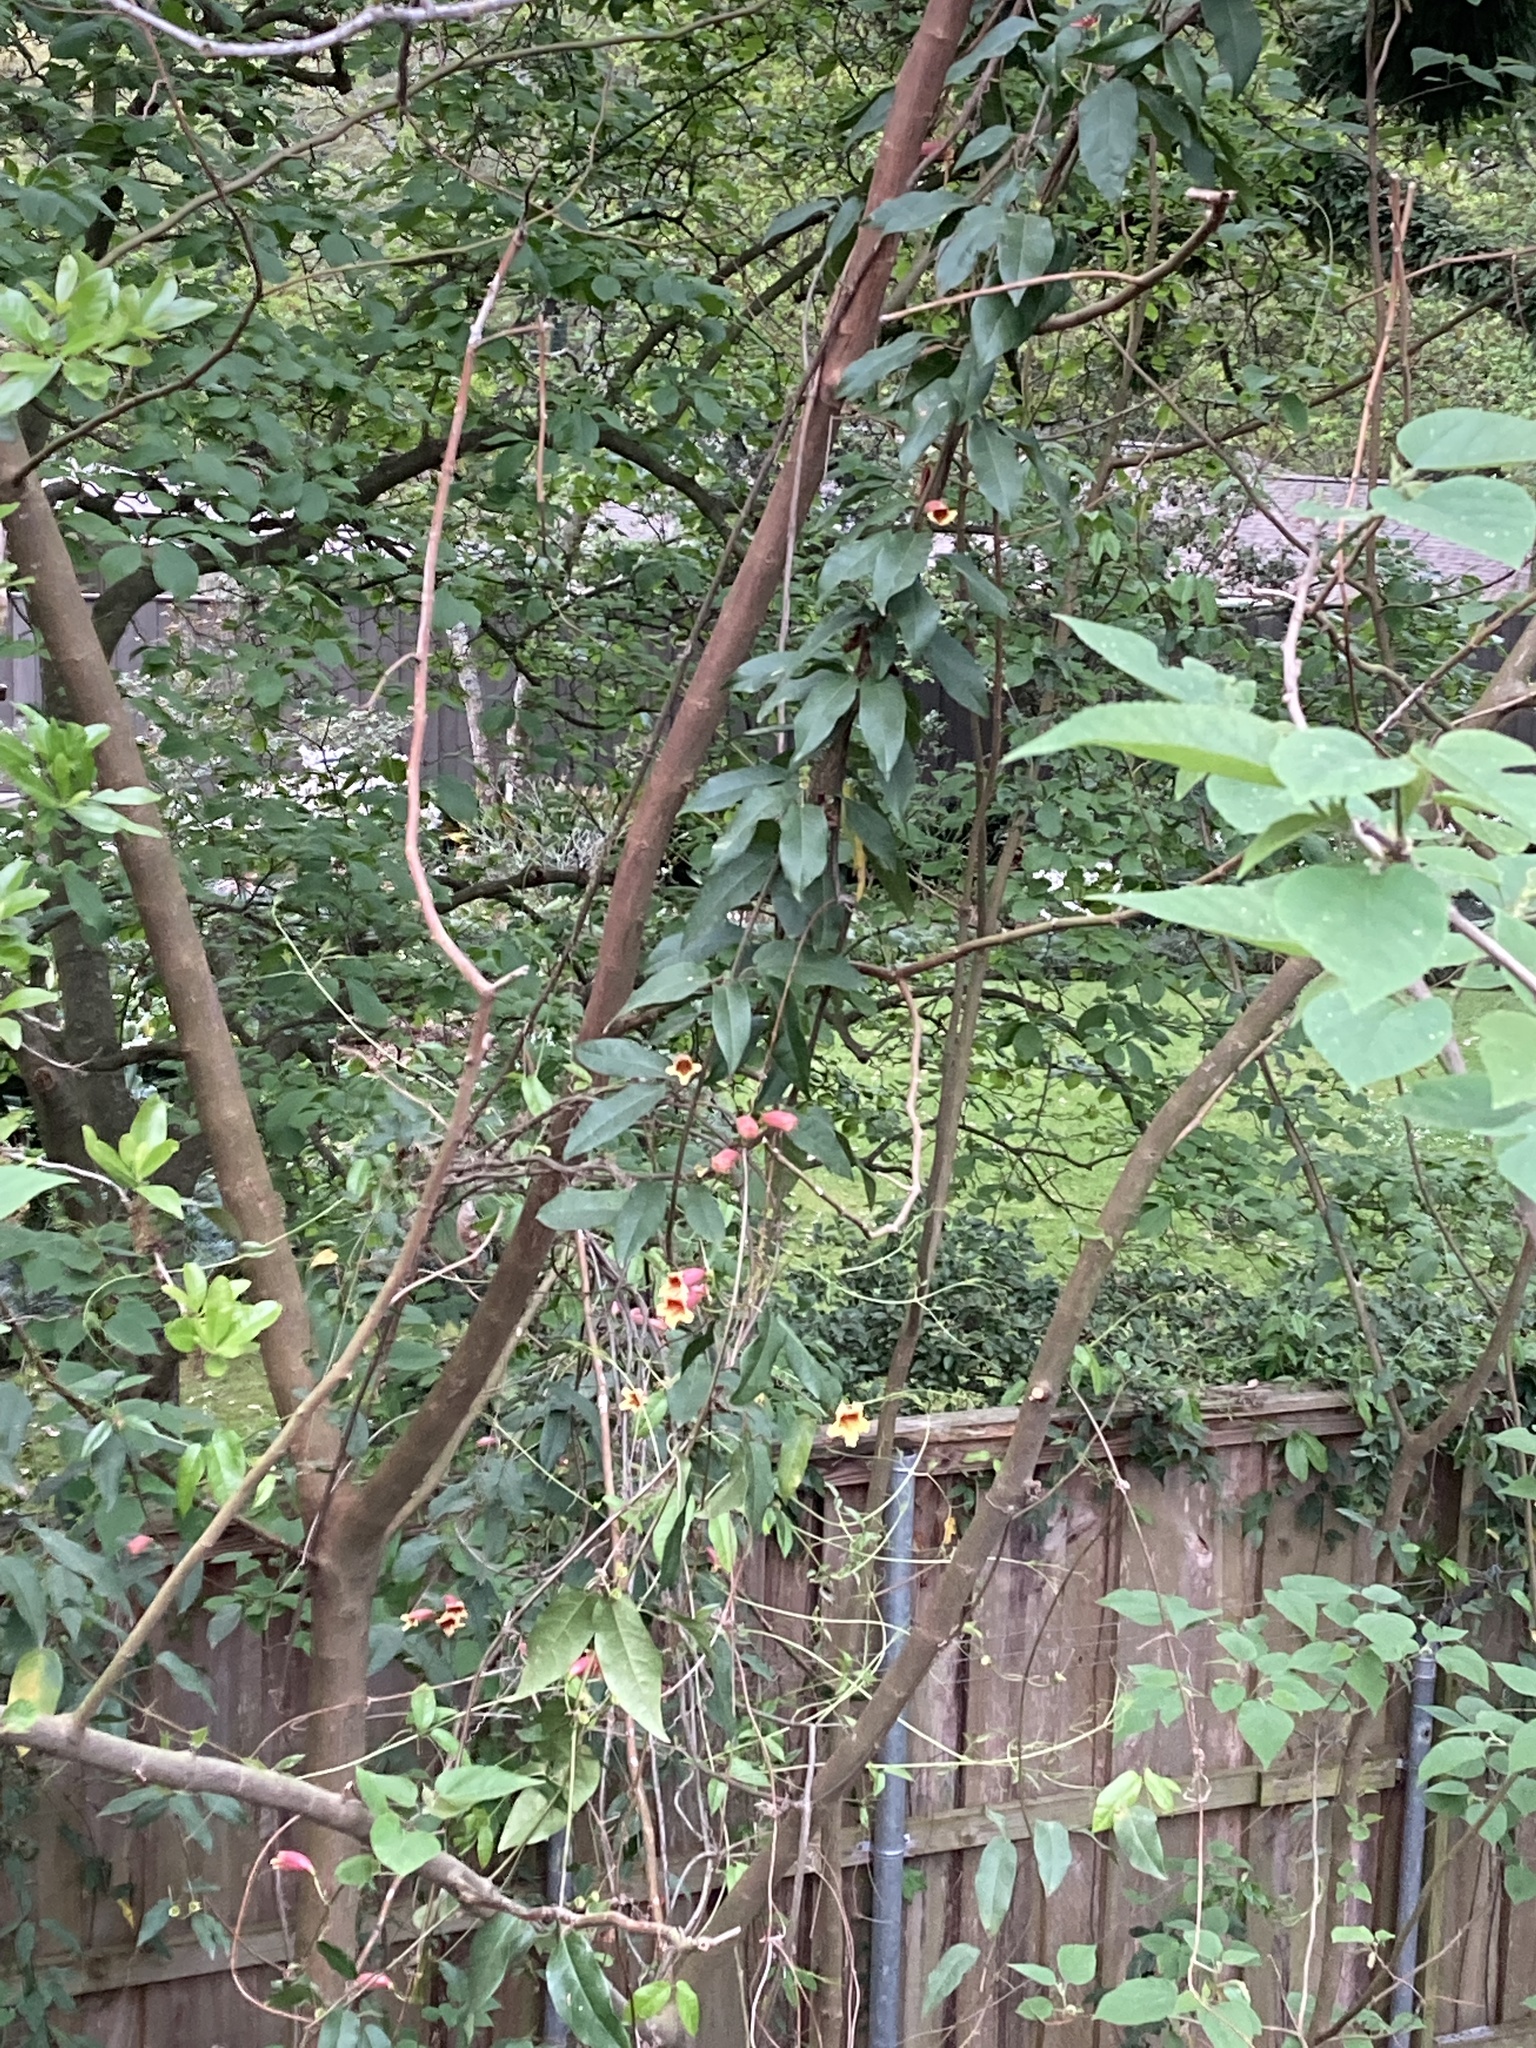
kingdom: Plantae
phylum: Tracheophyta
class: Magnoliopsida
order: Lamiales
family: Bignoniaceae
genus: Bignonia
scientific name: Bignonia capreolata
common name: Crossvine
